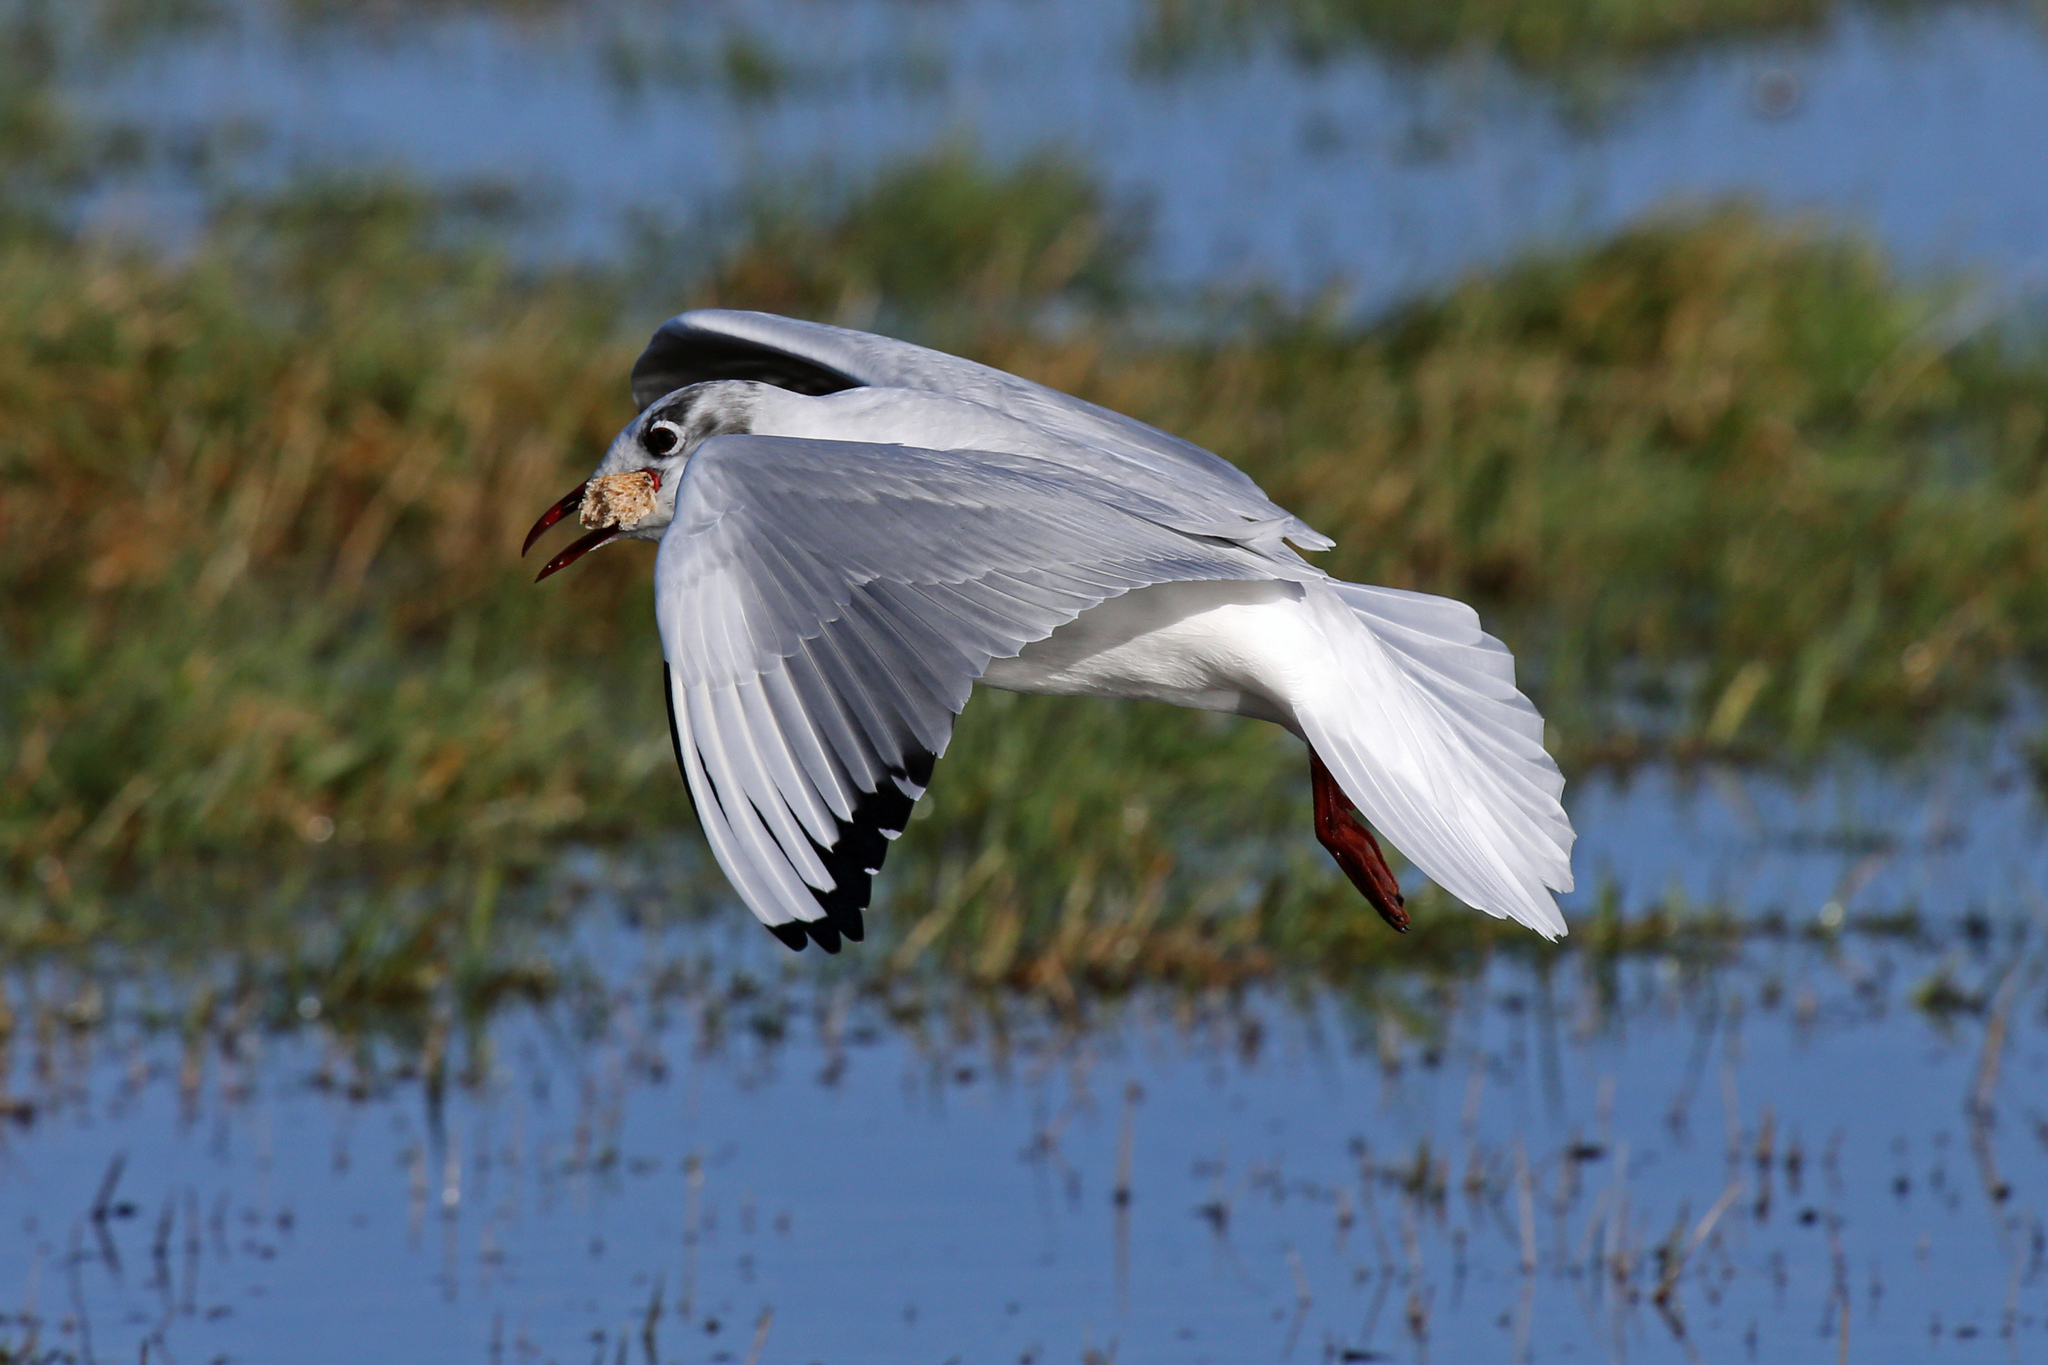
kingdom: Animalia
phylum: Chordata
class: Aves
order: Charadriiformes
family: Laridae
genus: Chroicocephalus
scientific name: Chroicocephalus ridibundus
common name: Black-headed gull
